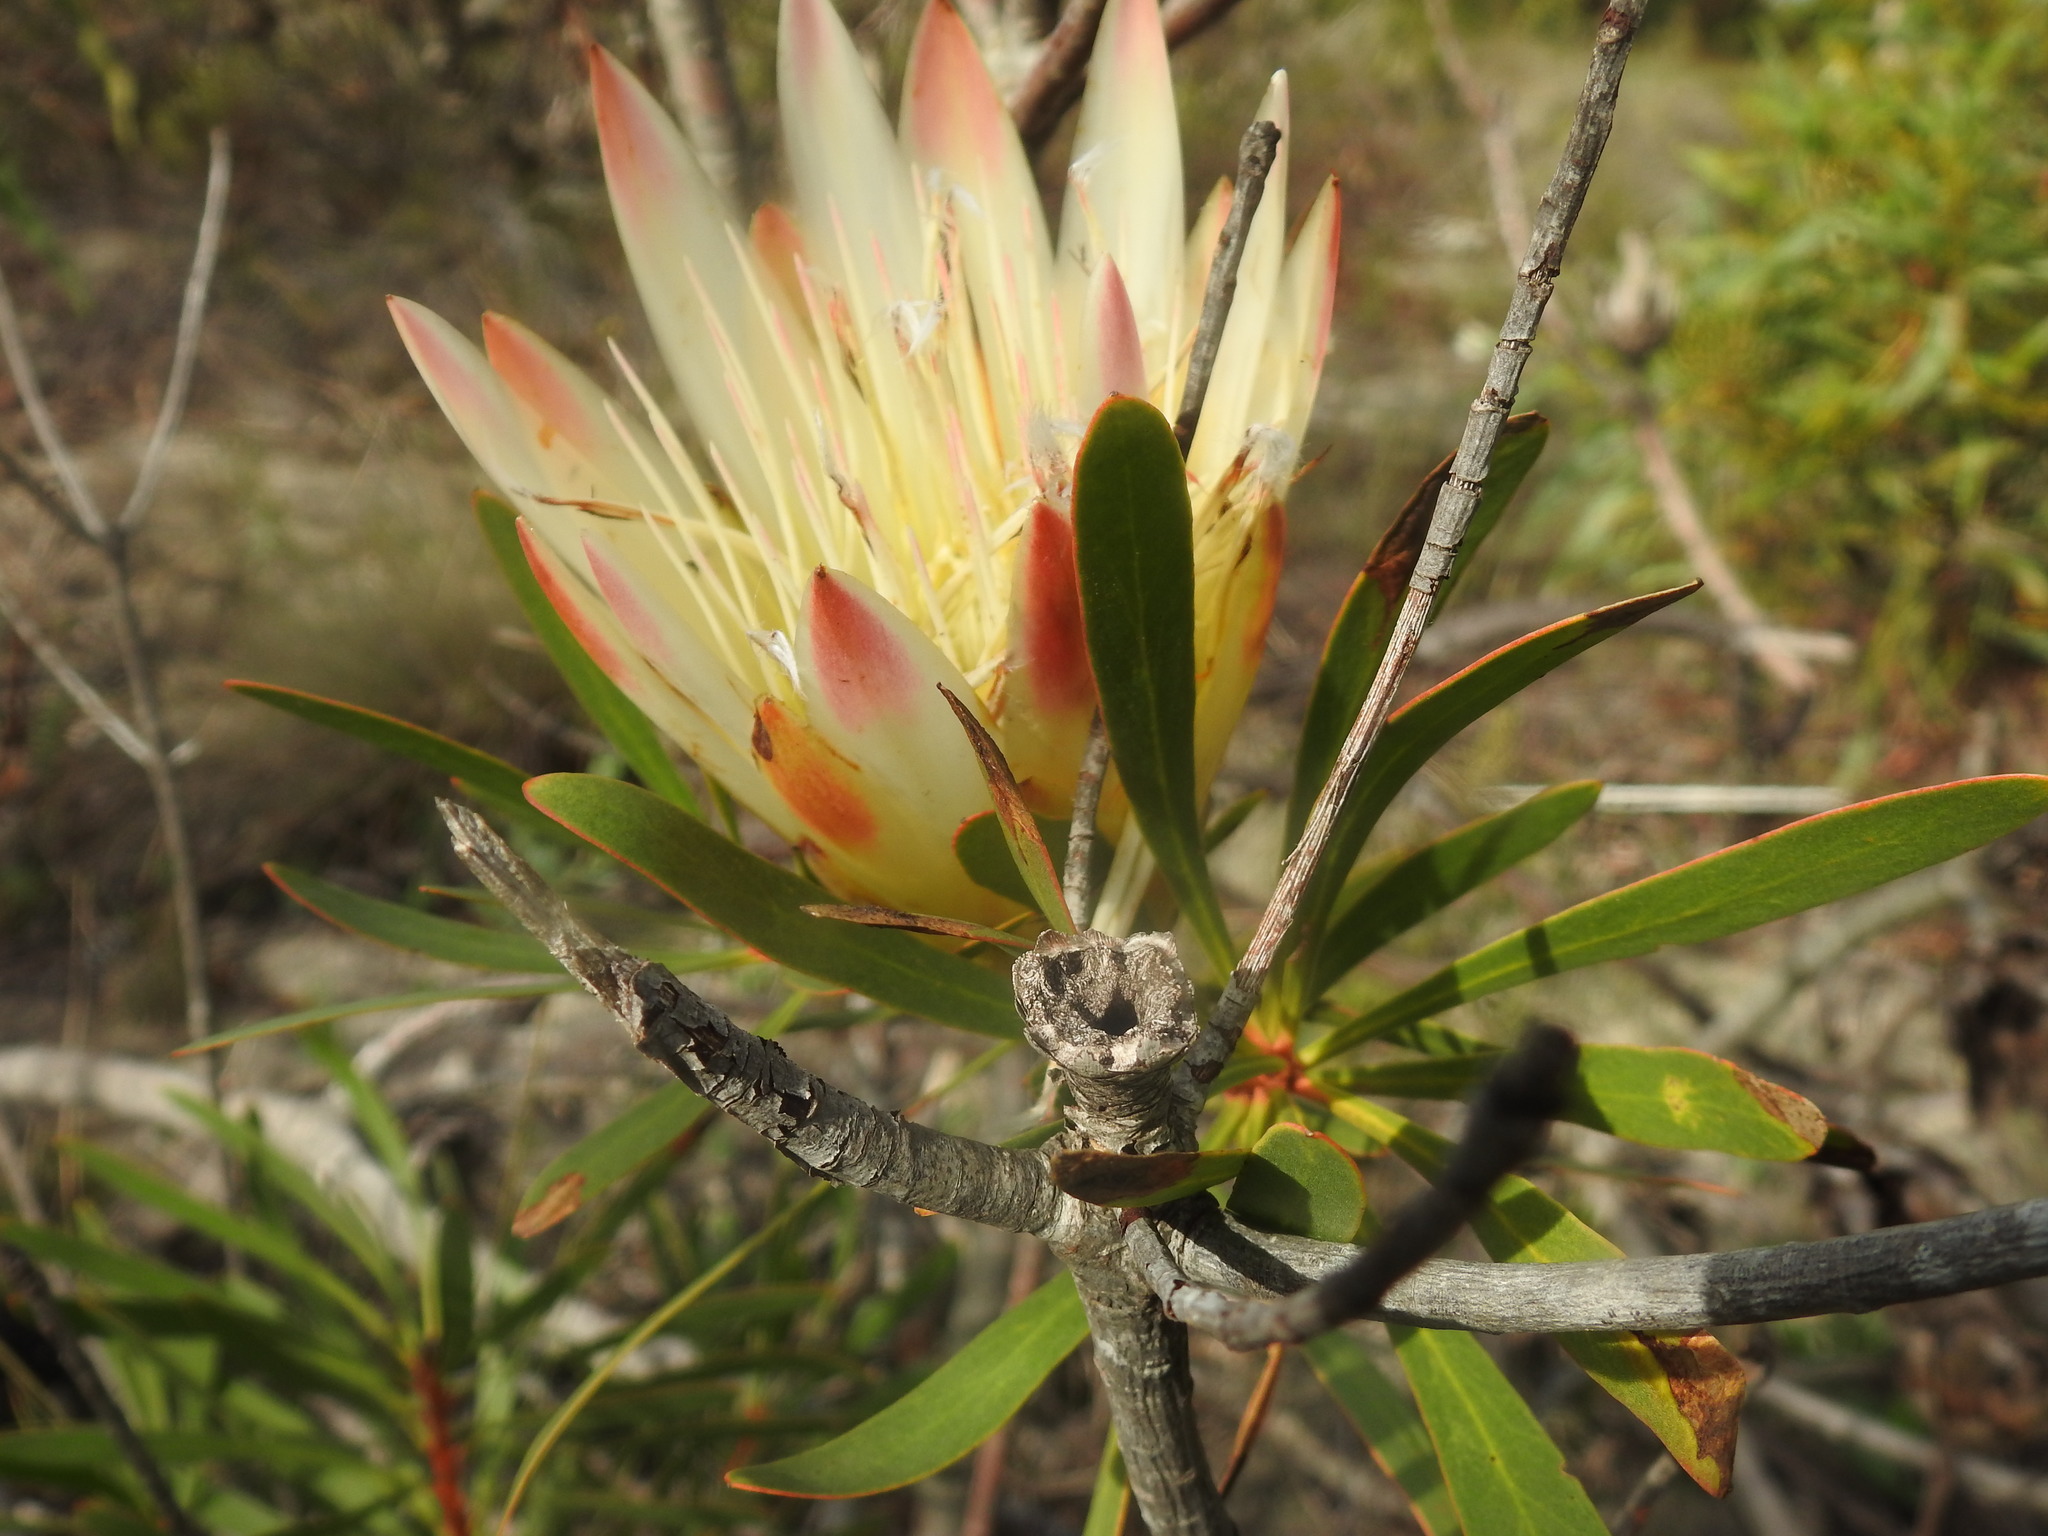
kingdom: Plantae
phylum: Tracheophyta
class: Magnoliopsida
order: Proteales
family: Proteaceae
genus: Protea
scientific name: Protea repens
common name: Sugarbush
